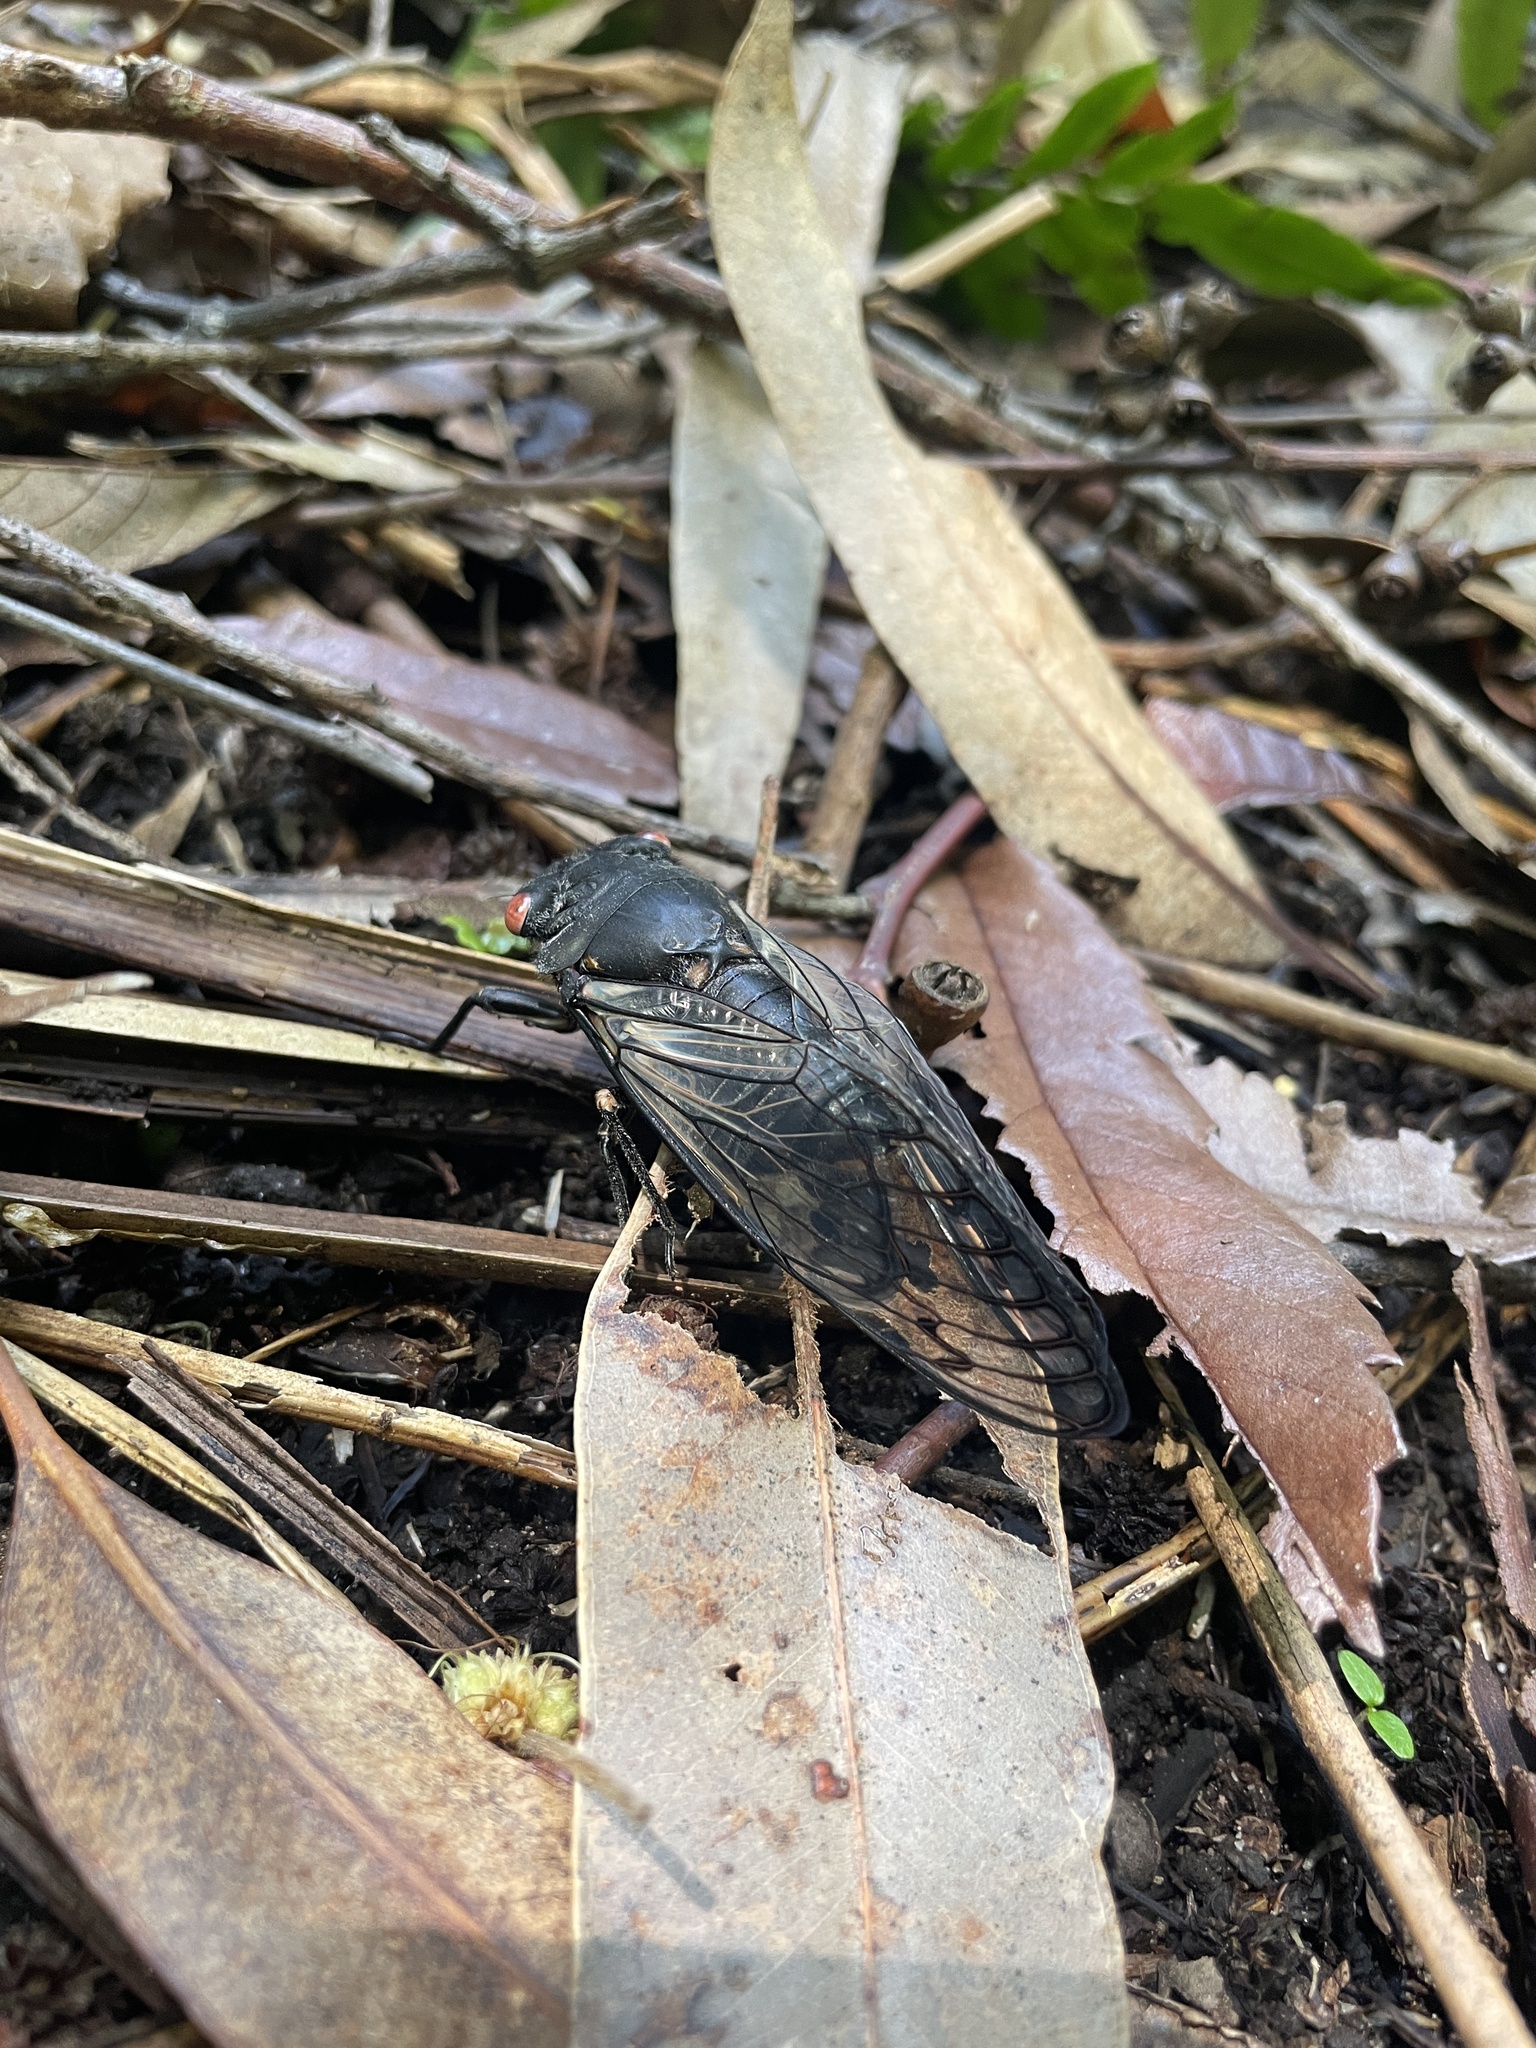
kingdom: Animalia
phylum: Arthropoda
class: Insecta
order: Hemiptera
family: Cicadidae
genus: Psaltoda
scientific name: Psaltoda moerens
